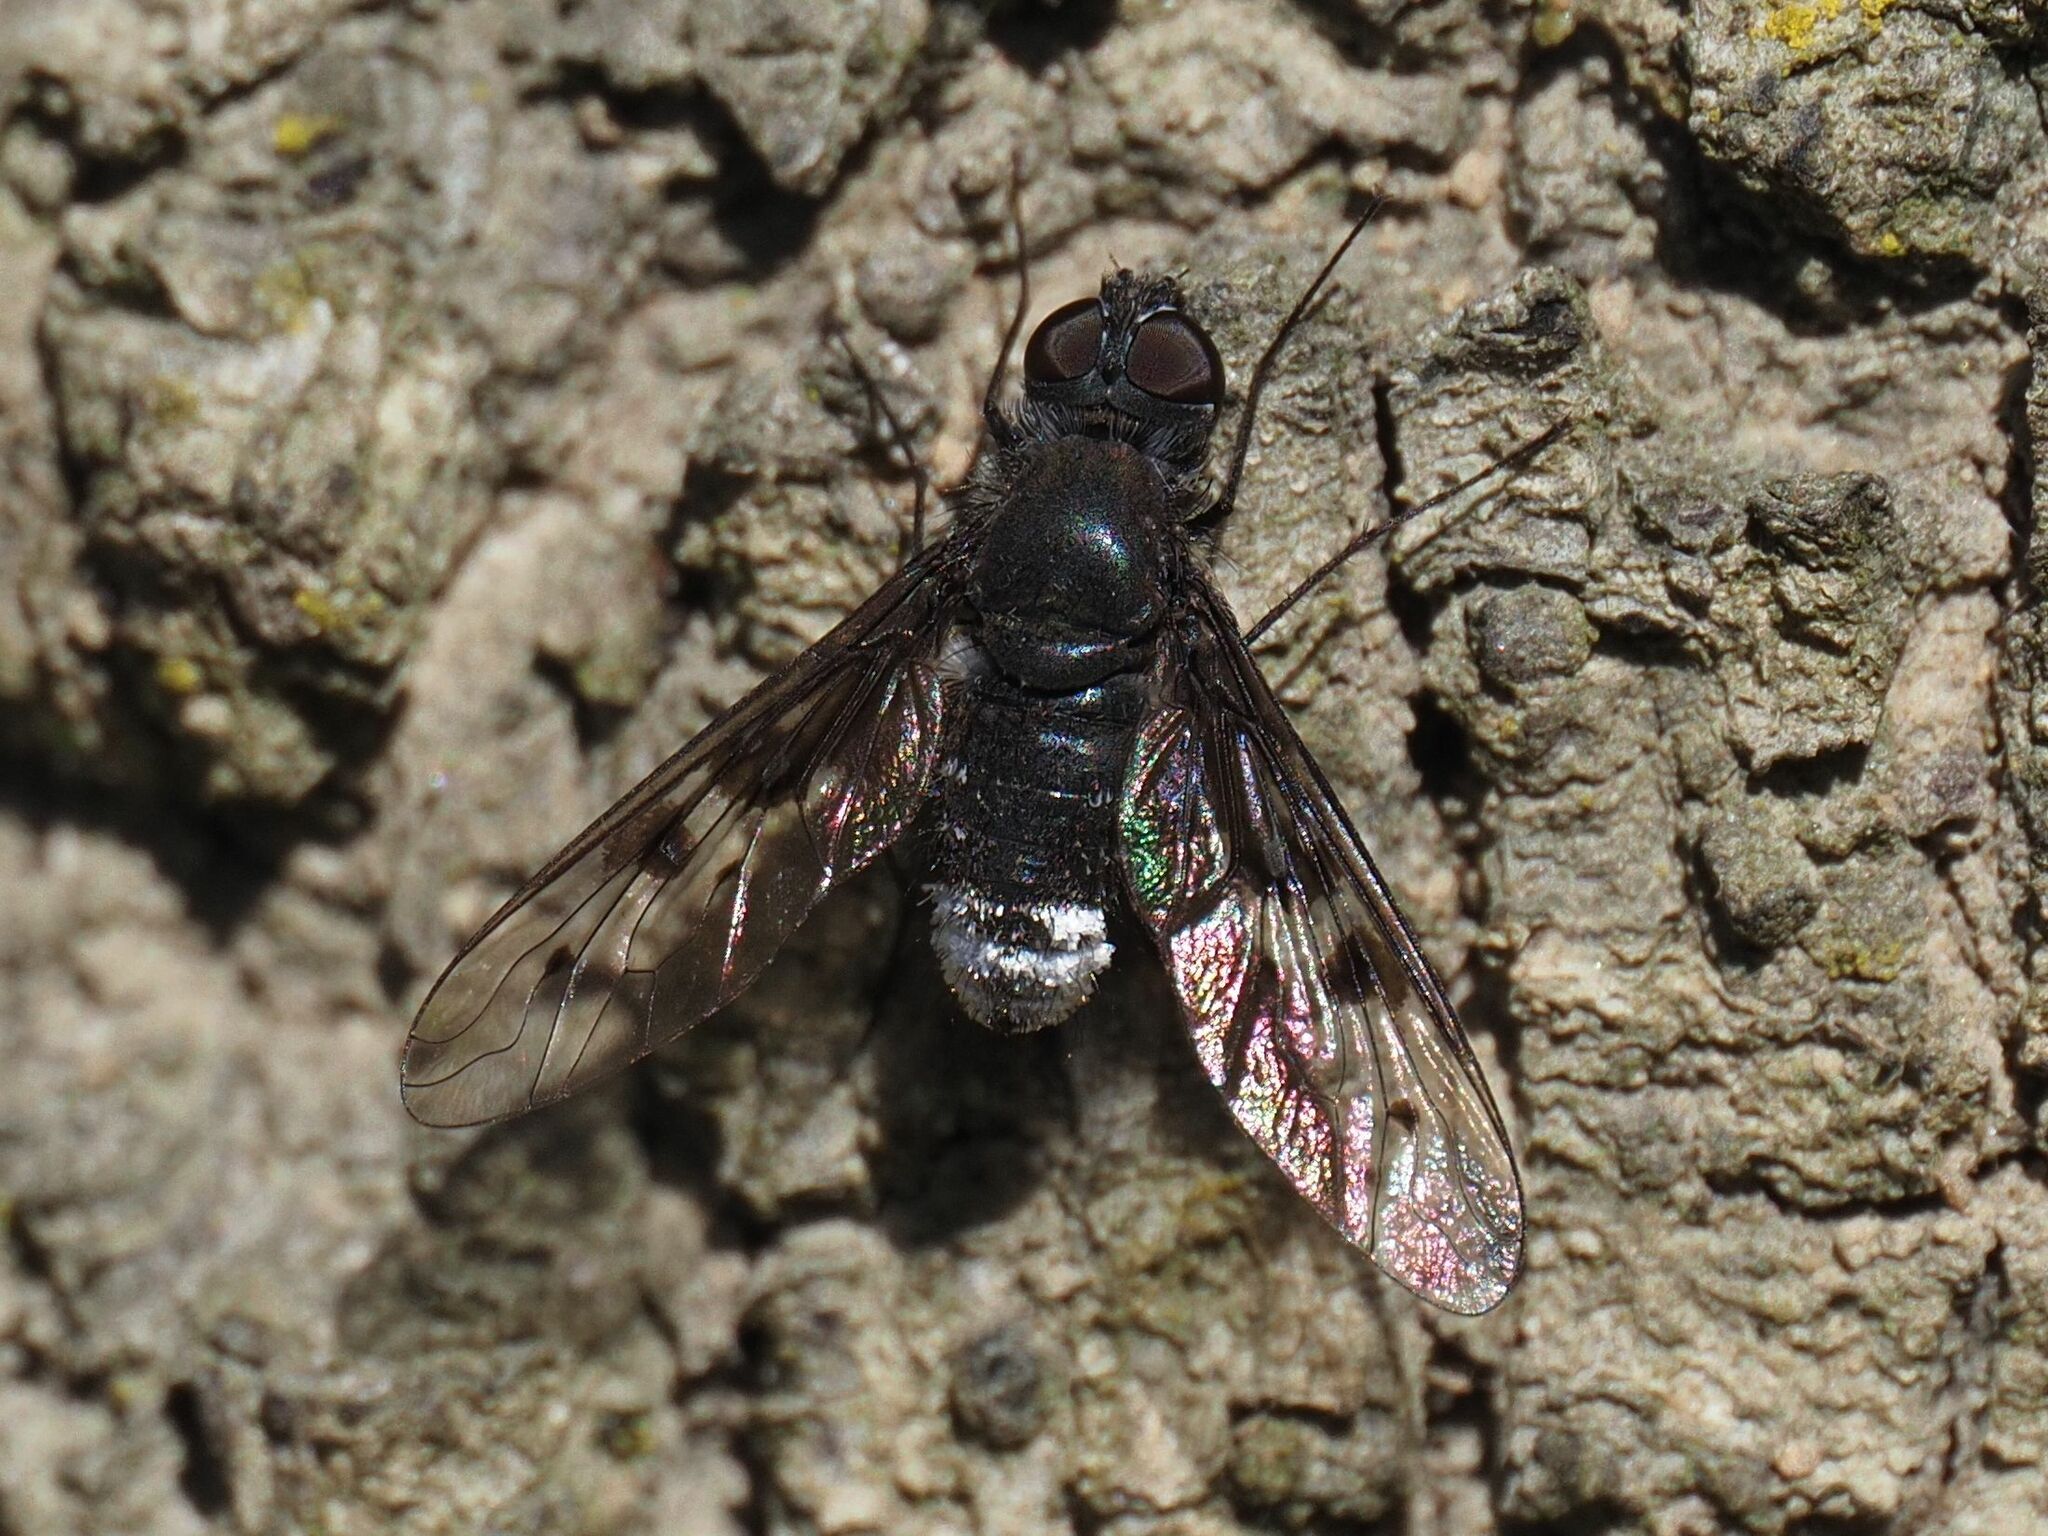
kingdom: Animalia
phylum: Arthropoda
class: Insecta
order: Diptera
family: Bombyliidae
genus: Anthrax
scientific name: Anthrax trifasciatus
